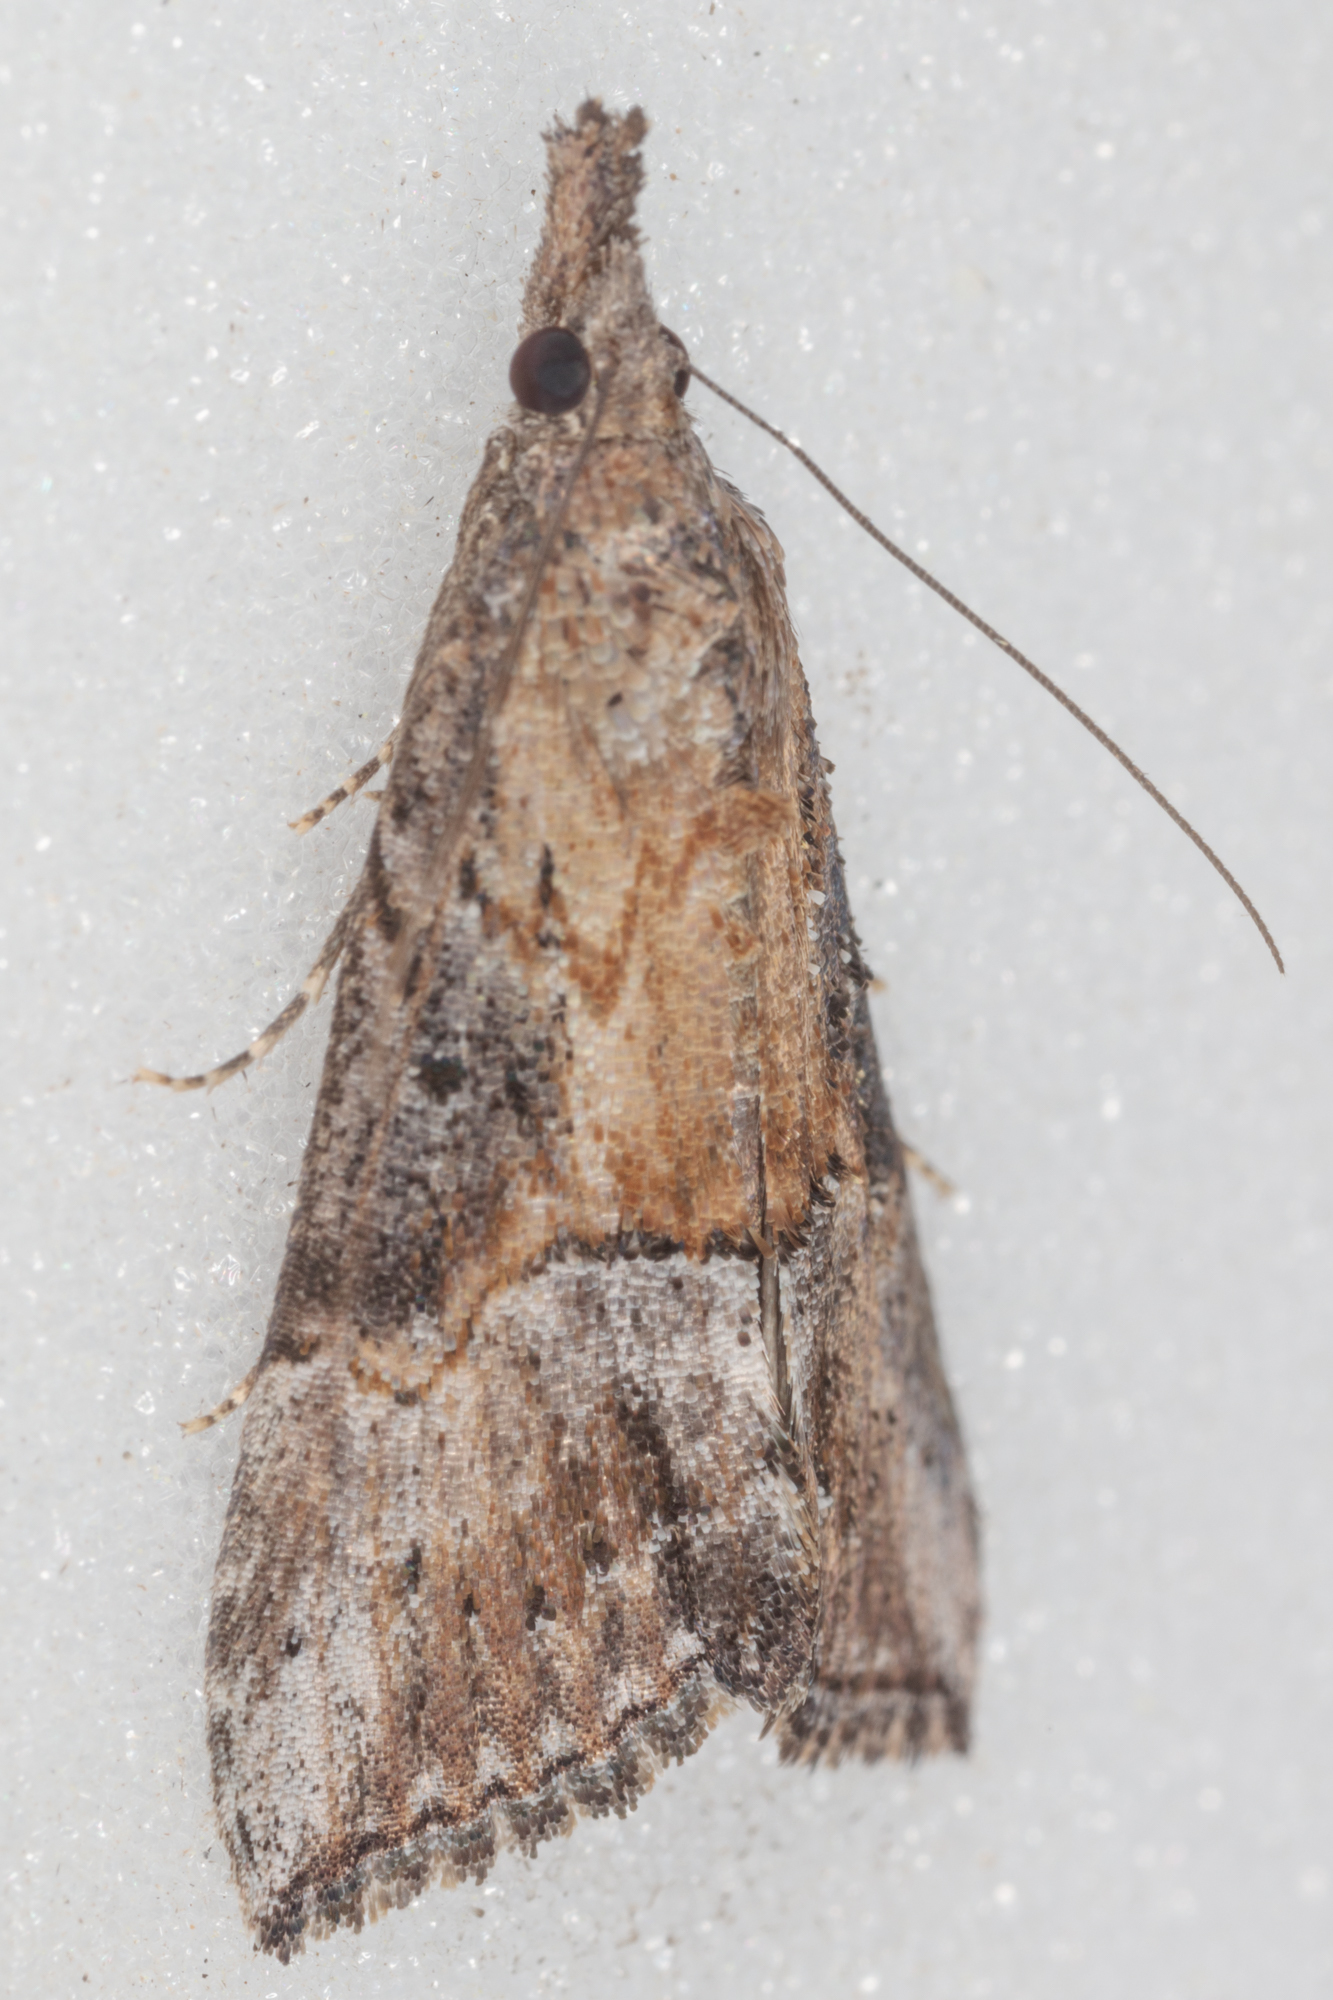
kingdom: Animalia
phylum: Arthropoda
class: Insecta
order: Lepidoptera
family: Erebidae
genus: Hypena
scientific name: Hypena scabra
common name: Green cloverworm
